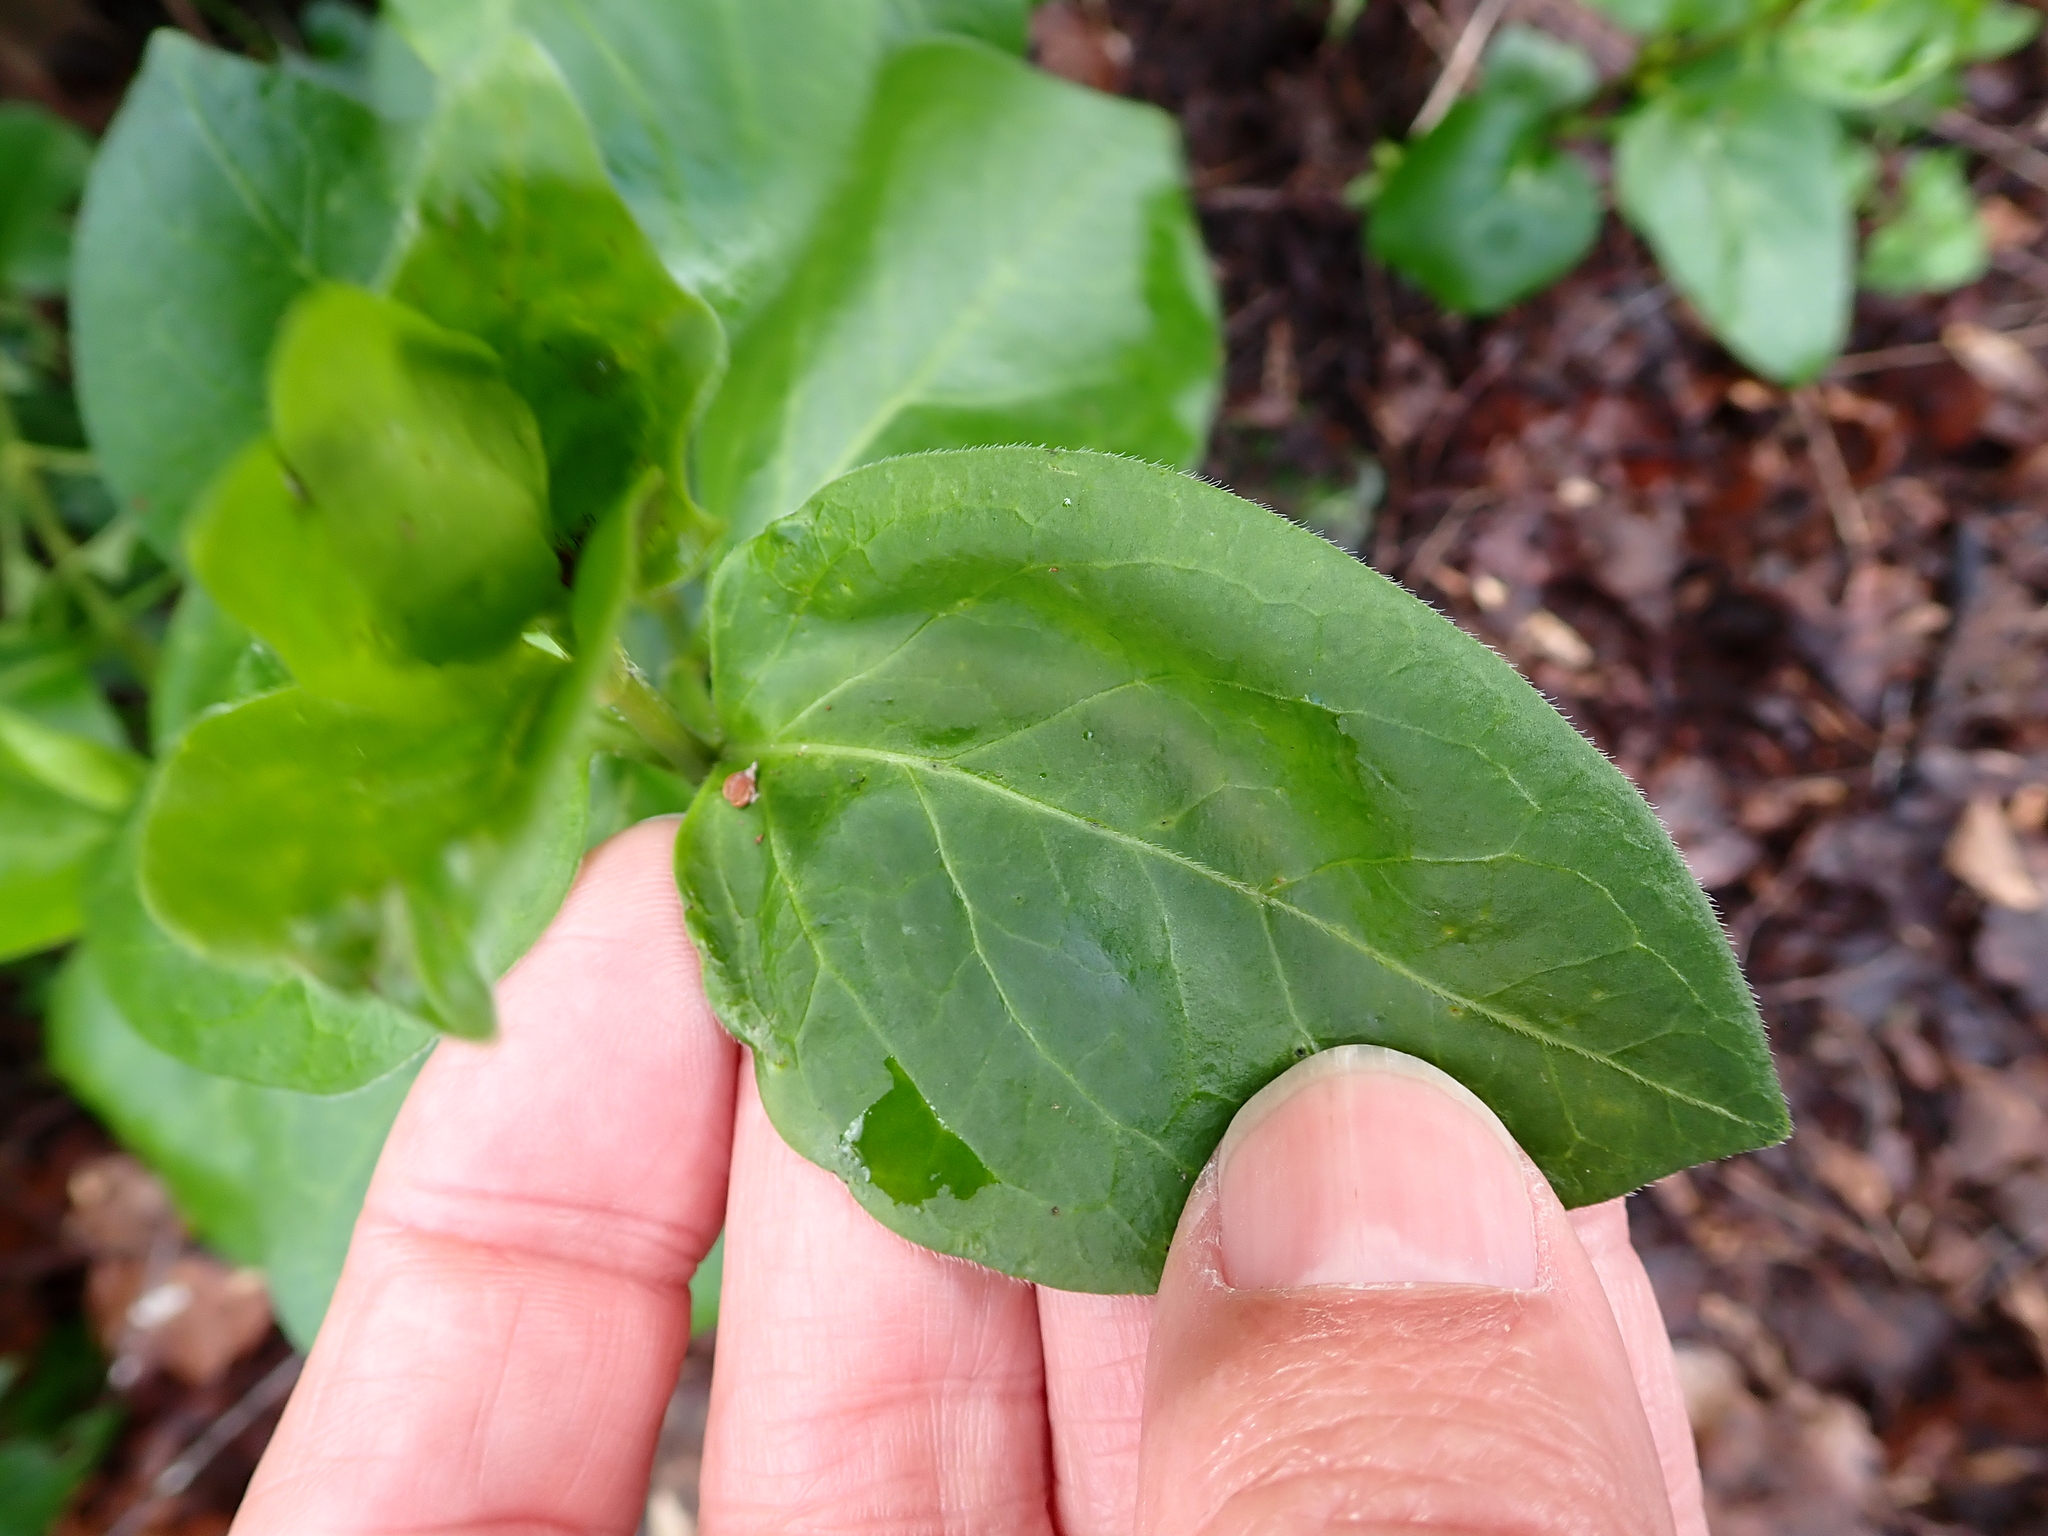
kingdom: Plantae
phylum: Tracheophyta
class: Magnoliopsida
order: Gentianales
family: Apocynaceae
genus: Vinca
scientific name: Vinca major
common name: Greater periwinkle
